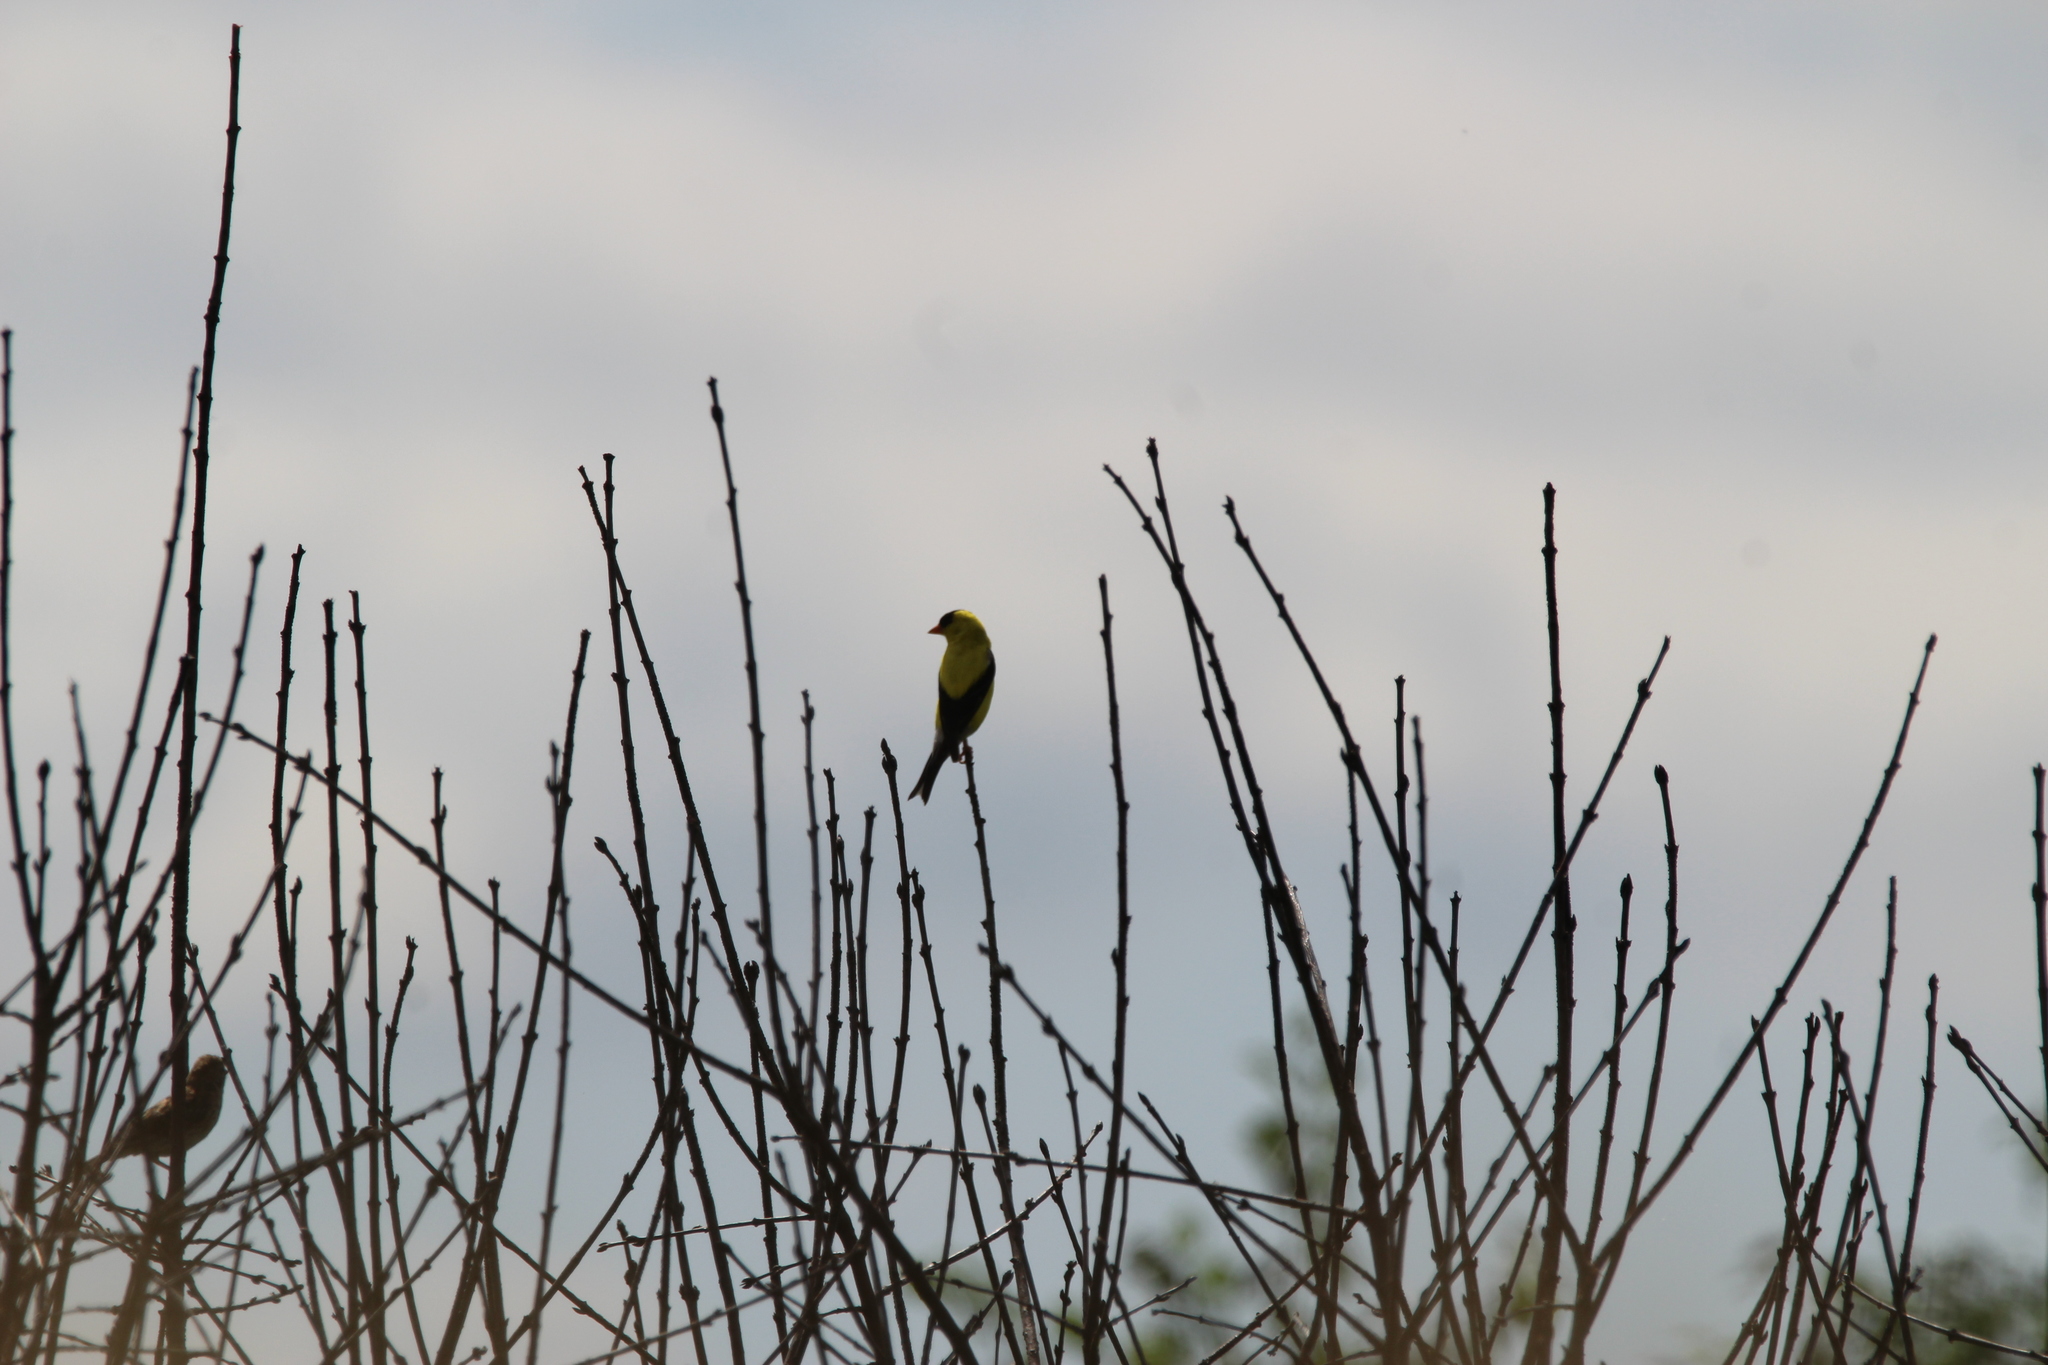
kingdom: Animalia
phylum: Chordata
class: Aves
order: Passeriformes
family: Fringillidae
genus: Spinus
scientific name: Spinus tristis
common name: American goldfinch
